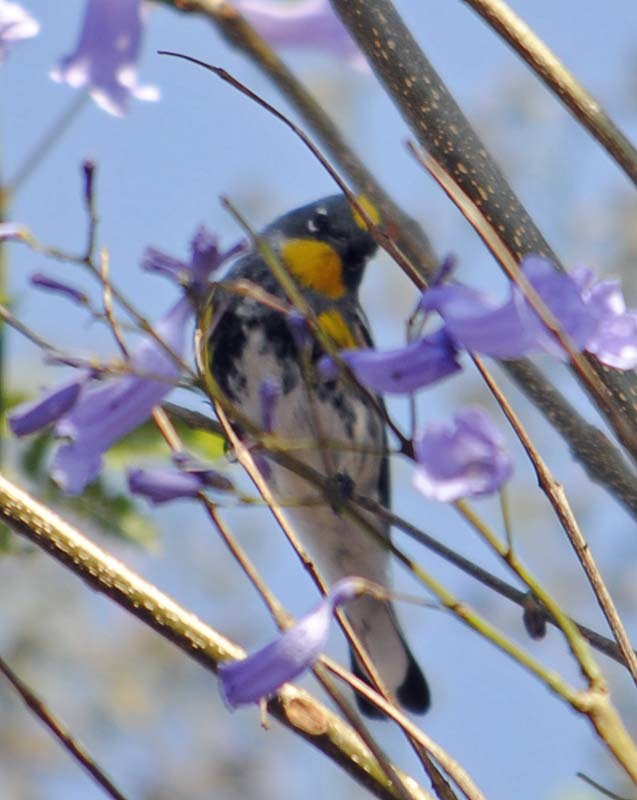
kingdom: Animalia
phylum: Chordata
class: Aves
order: Passeriformes
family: Parulidae
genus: Setophaga
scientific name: Setophaga auduboni
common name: Audubon's warbler
